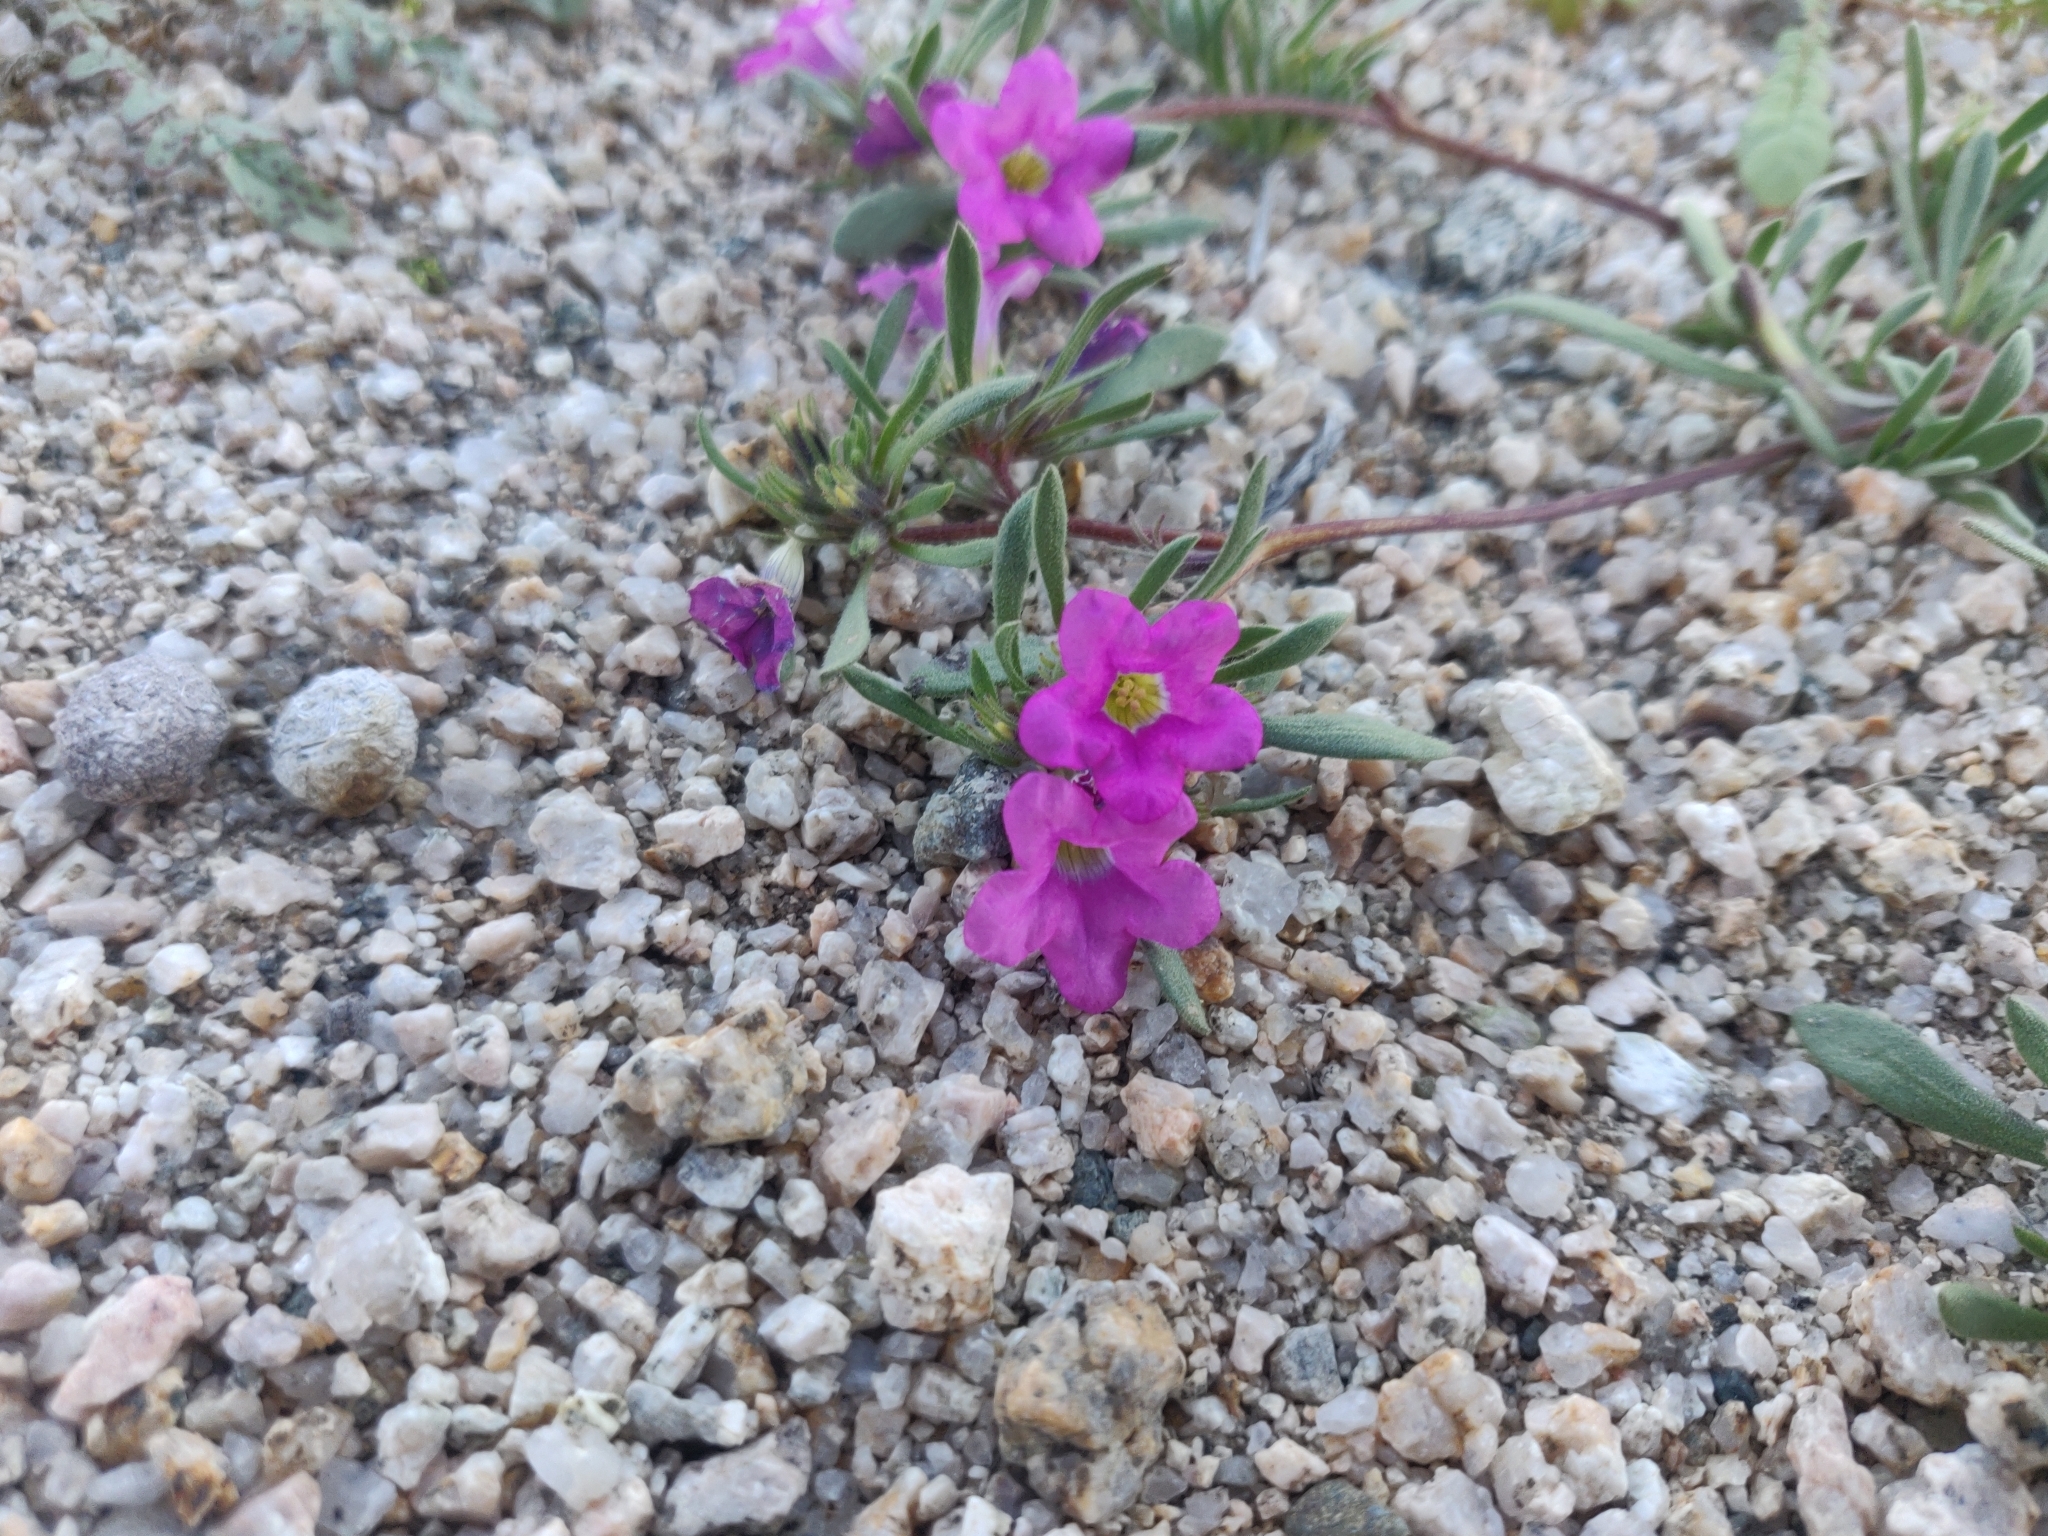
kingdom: Plantae
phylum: Tracheophyta
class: Magnoliopsida
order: Boraginales
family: Namaceae
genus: Nama
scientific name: Nama demissa
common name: Leafy nama
